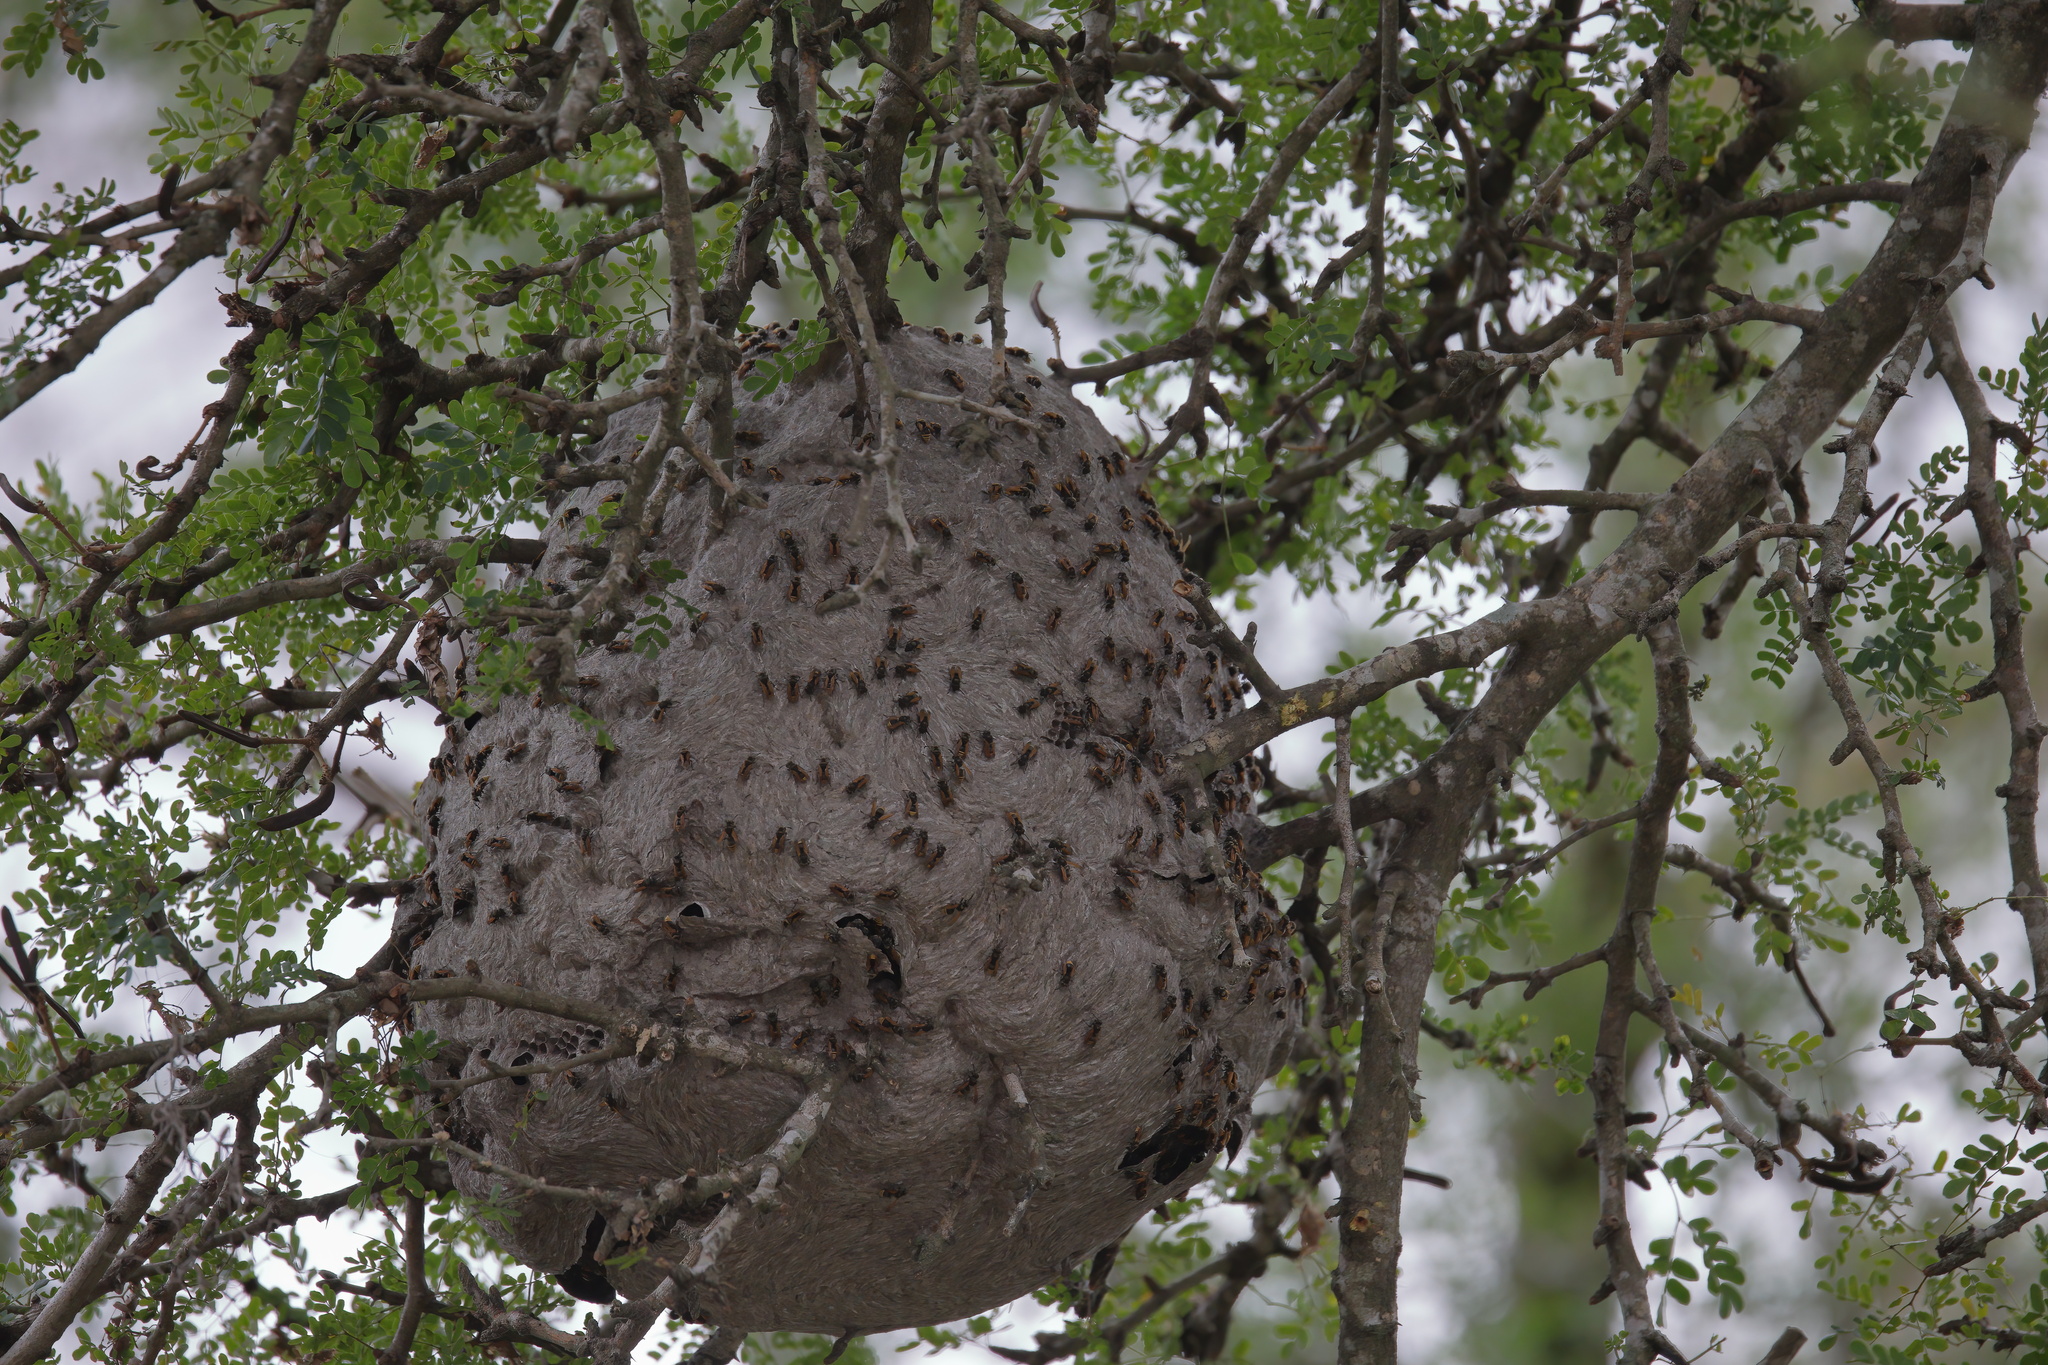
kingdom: Animalia
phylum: Arthropoda
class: Insecta
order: Hymenoptera
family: Vespidae
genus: Brachygastra
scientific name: Brachygastra mellifica
